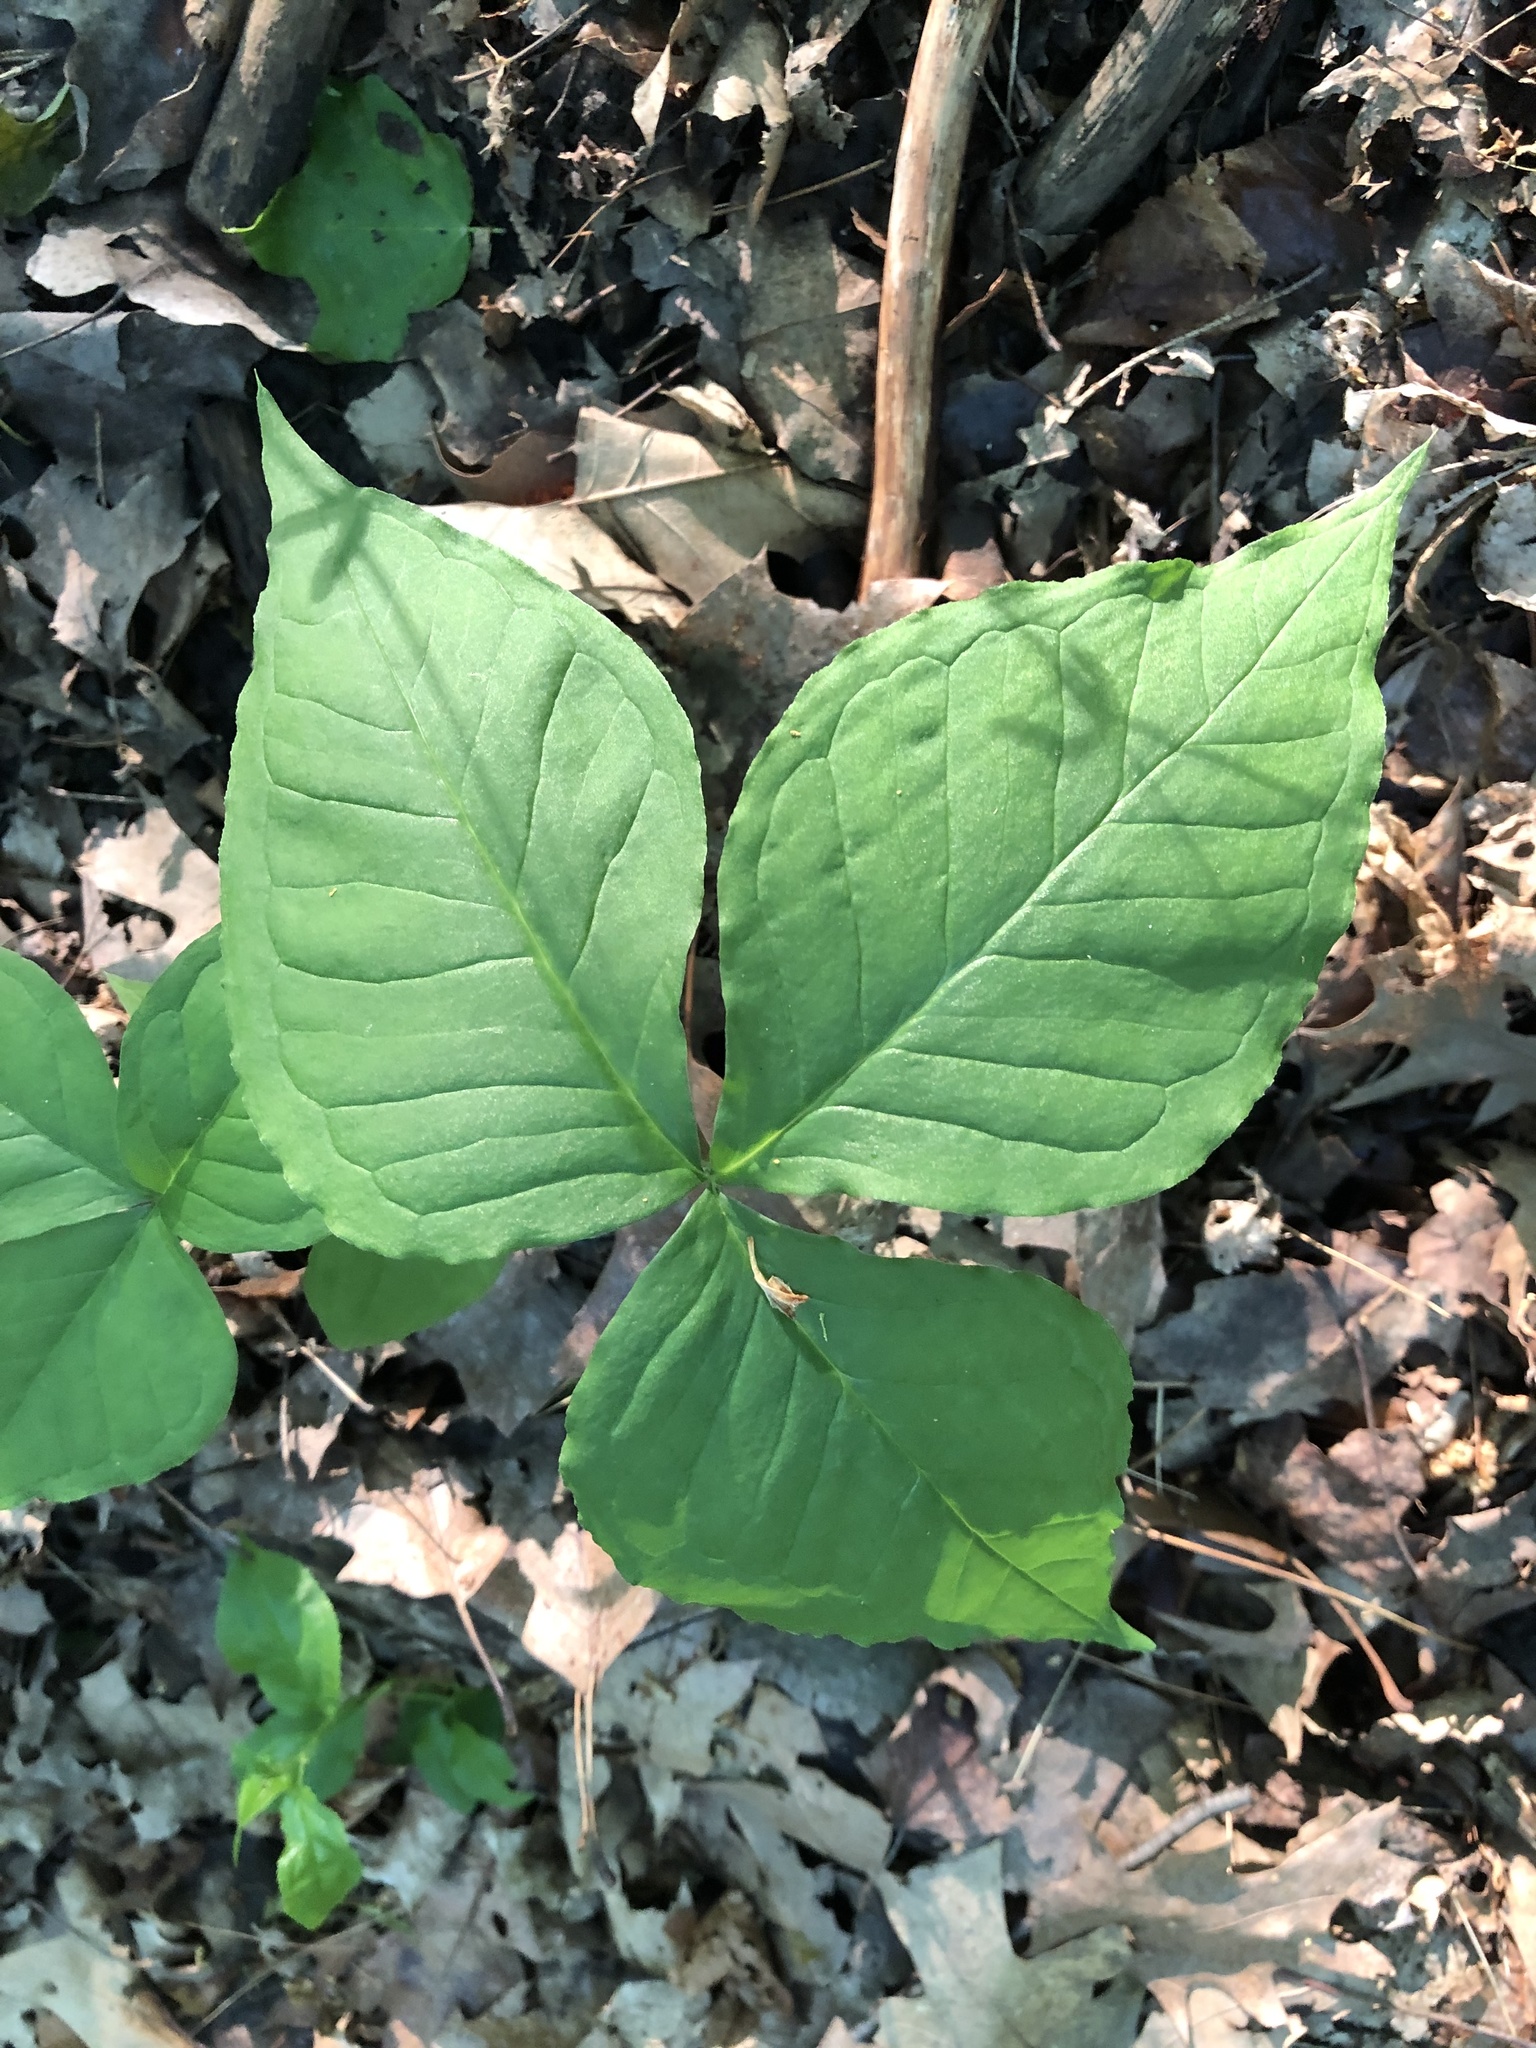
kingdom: Plantae
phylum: Tracheophyta
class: Liliopsida
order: Alismatales
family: Araceae
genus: Arisaema
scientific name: Arisaema triphyllum
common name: Jack-in-the-pulpit
